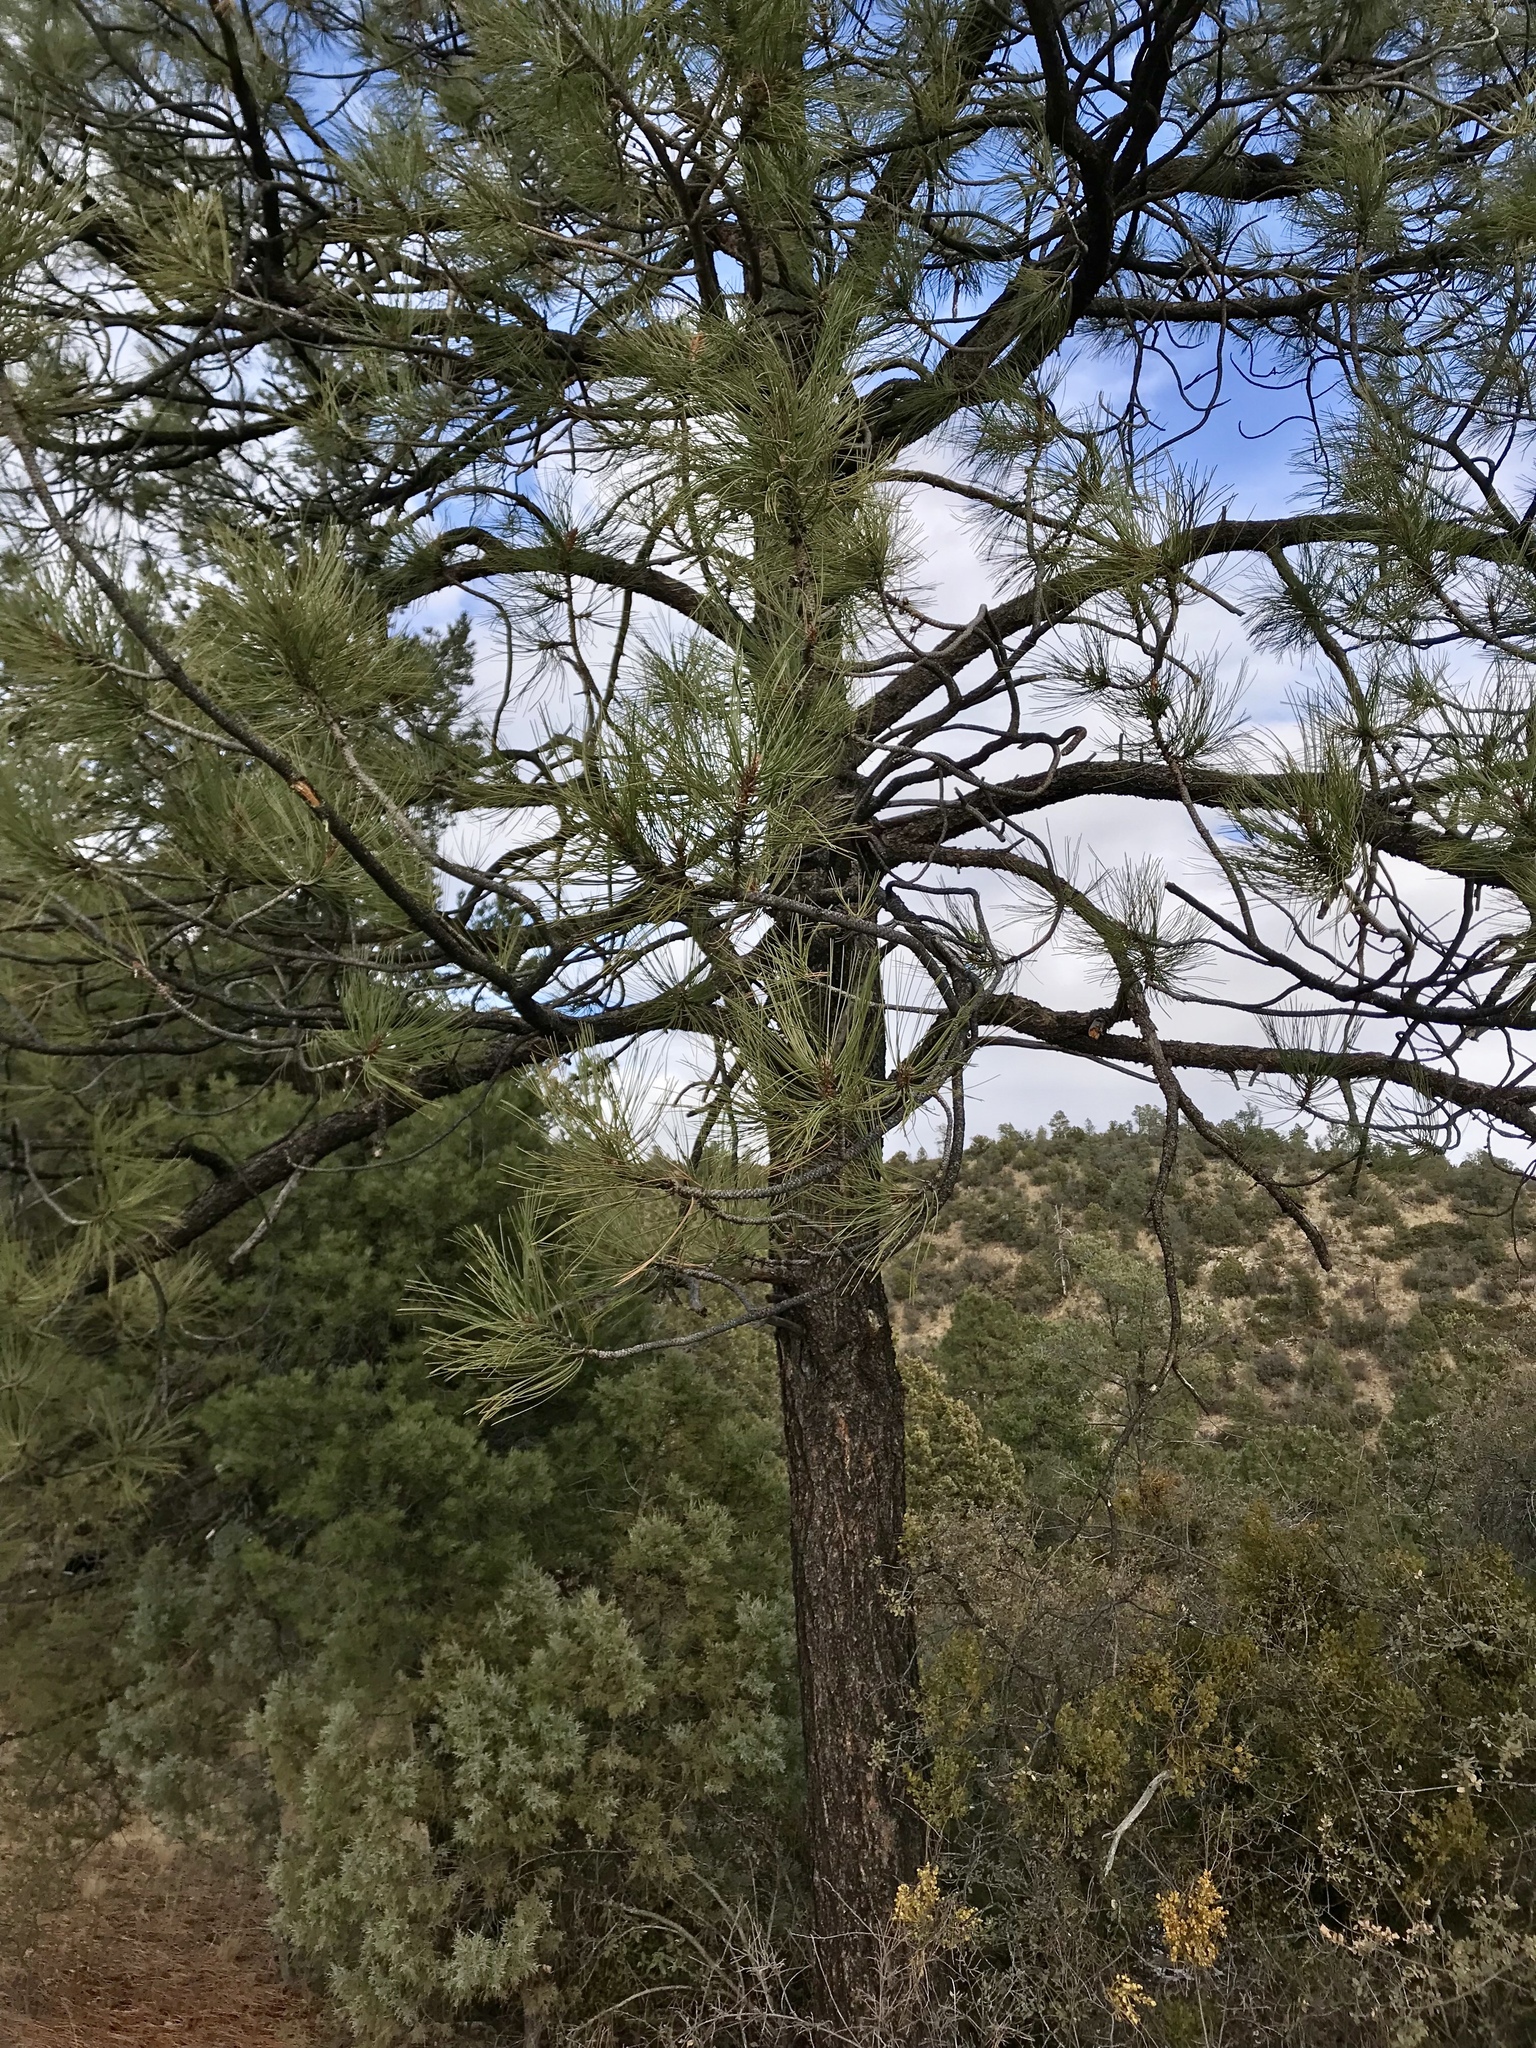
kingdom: Plantae
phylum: Tracheophyta
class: Pinopsida
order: Pinales
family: Pinaceae
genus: Pinus
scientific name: Pinus ponderosa
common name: Western yellow-pine
